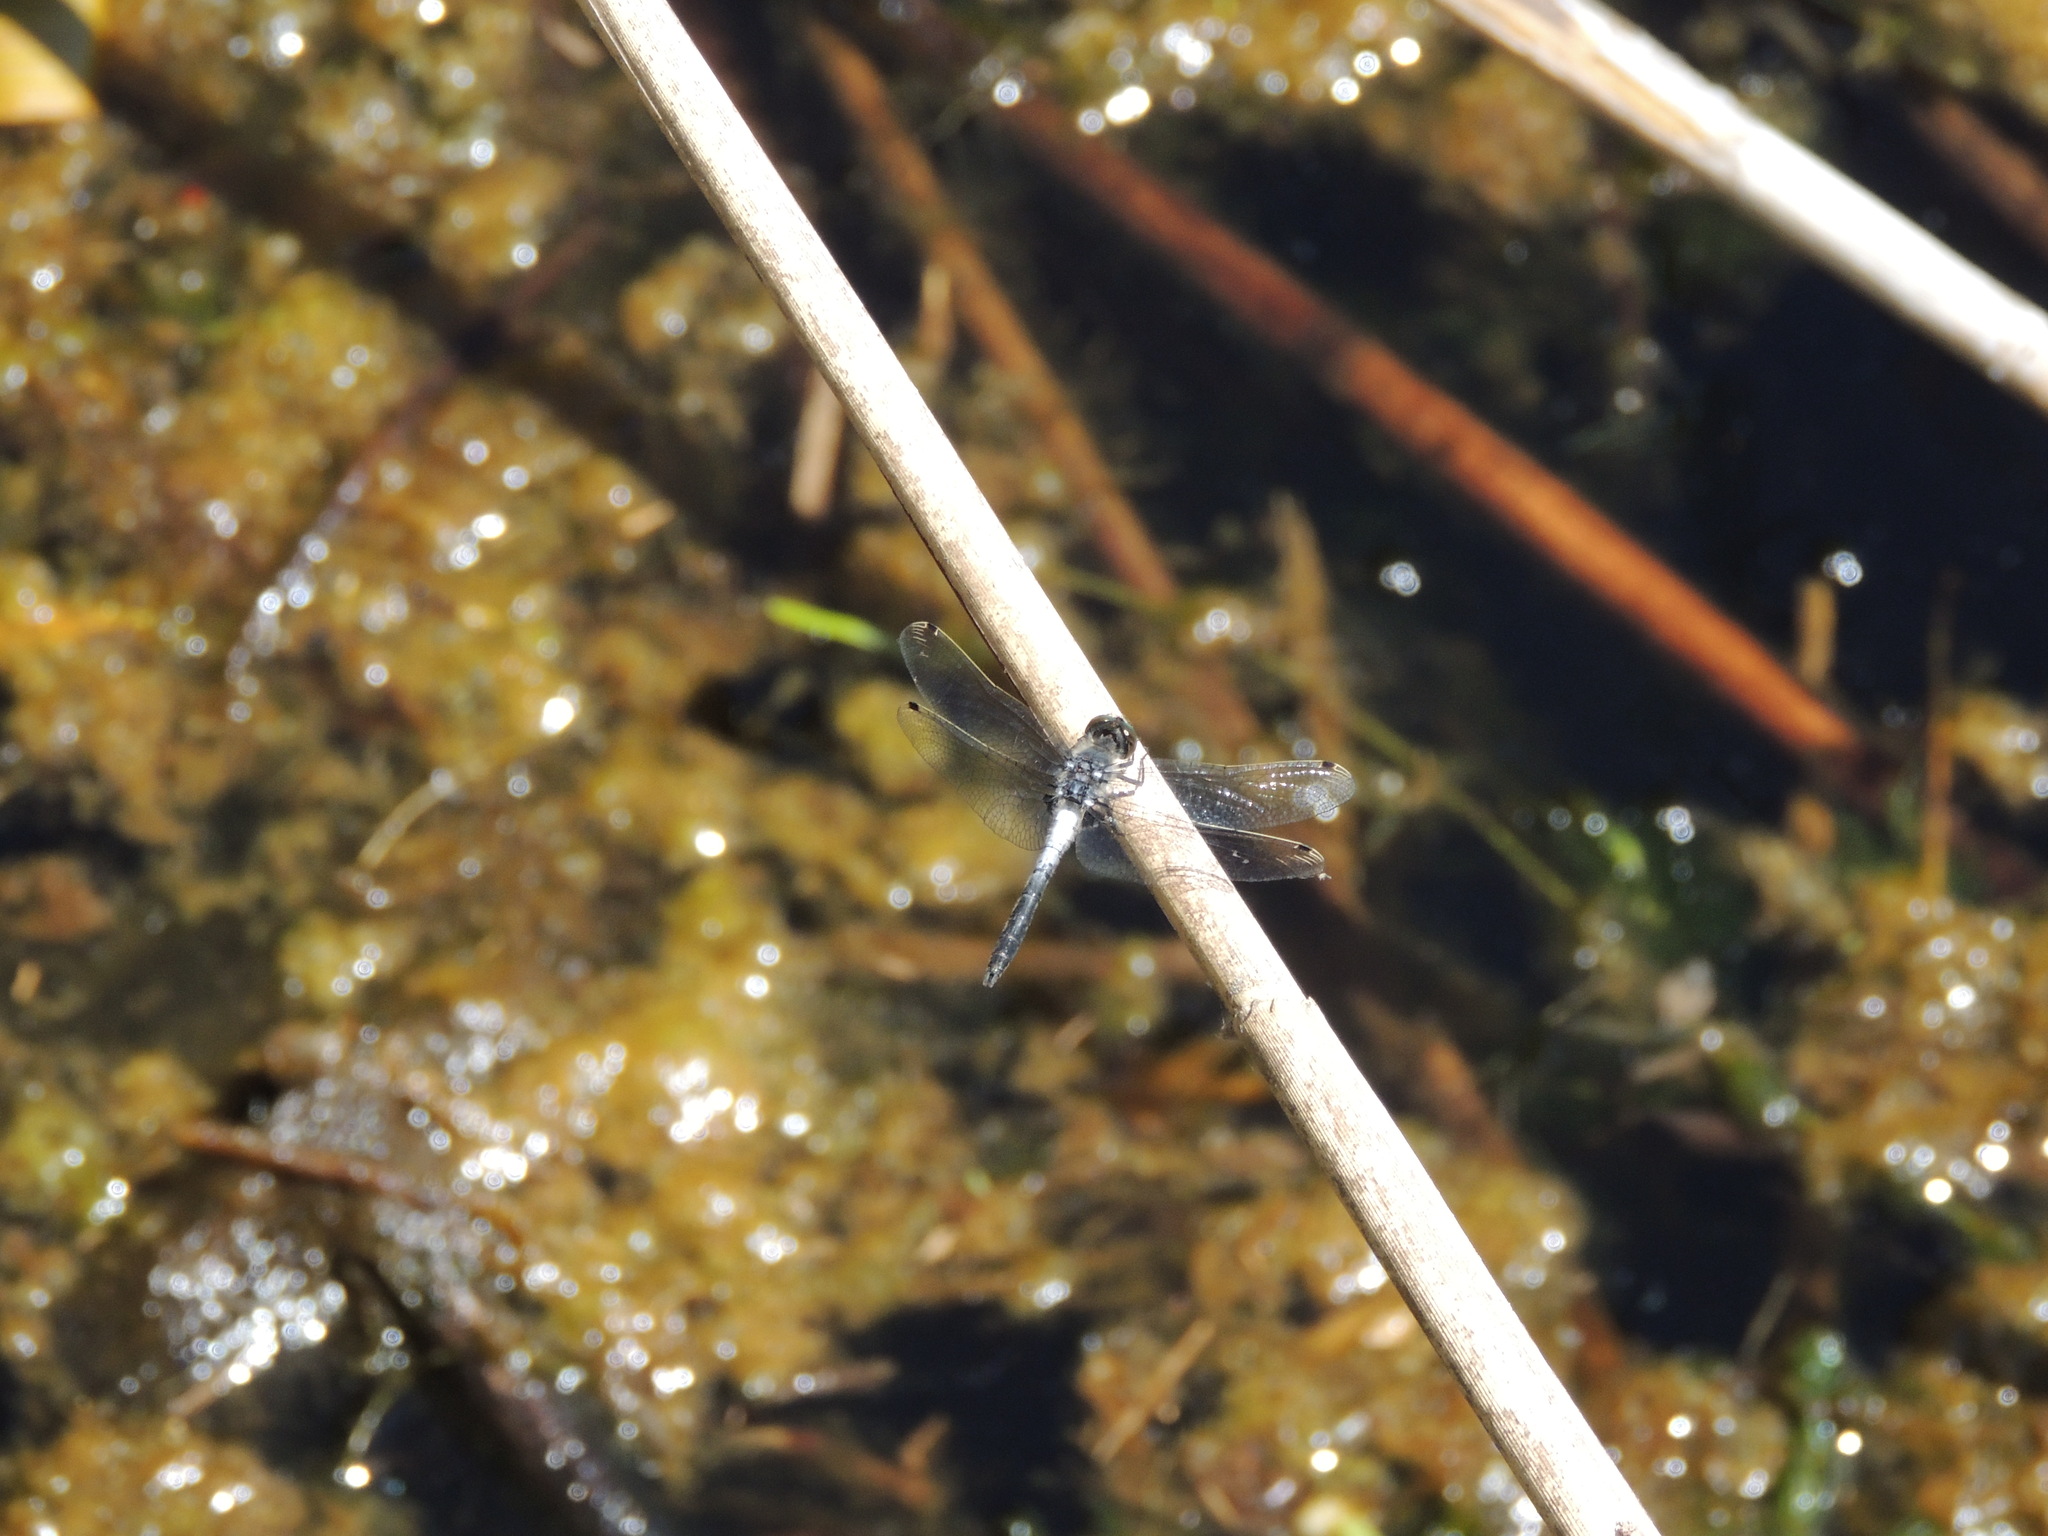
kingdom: Animalia
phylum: Arthropoda
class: Insecta
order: Odonata
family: Libellulidae
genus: Leucorrhinia
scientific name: Leucorrhinia frigida
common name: Frosted whiteface
